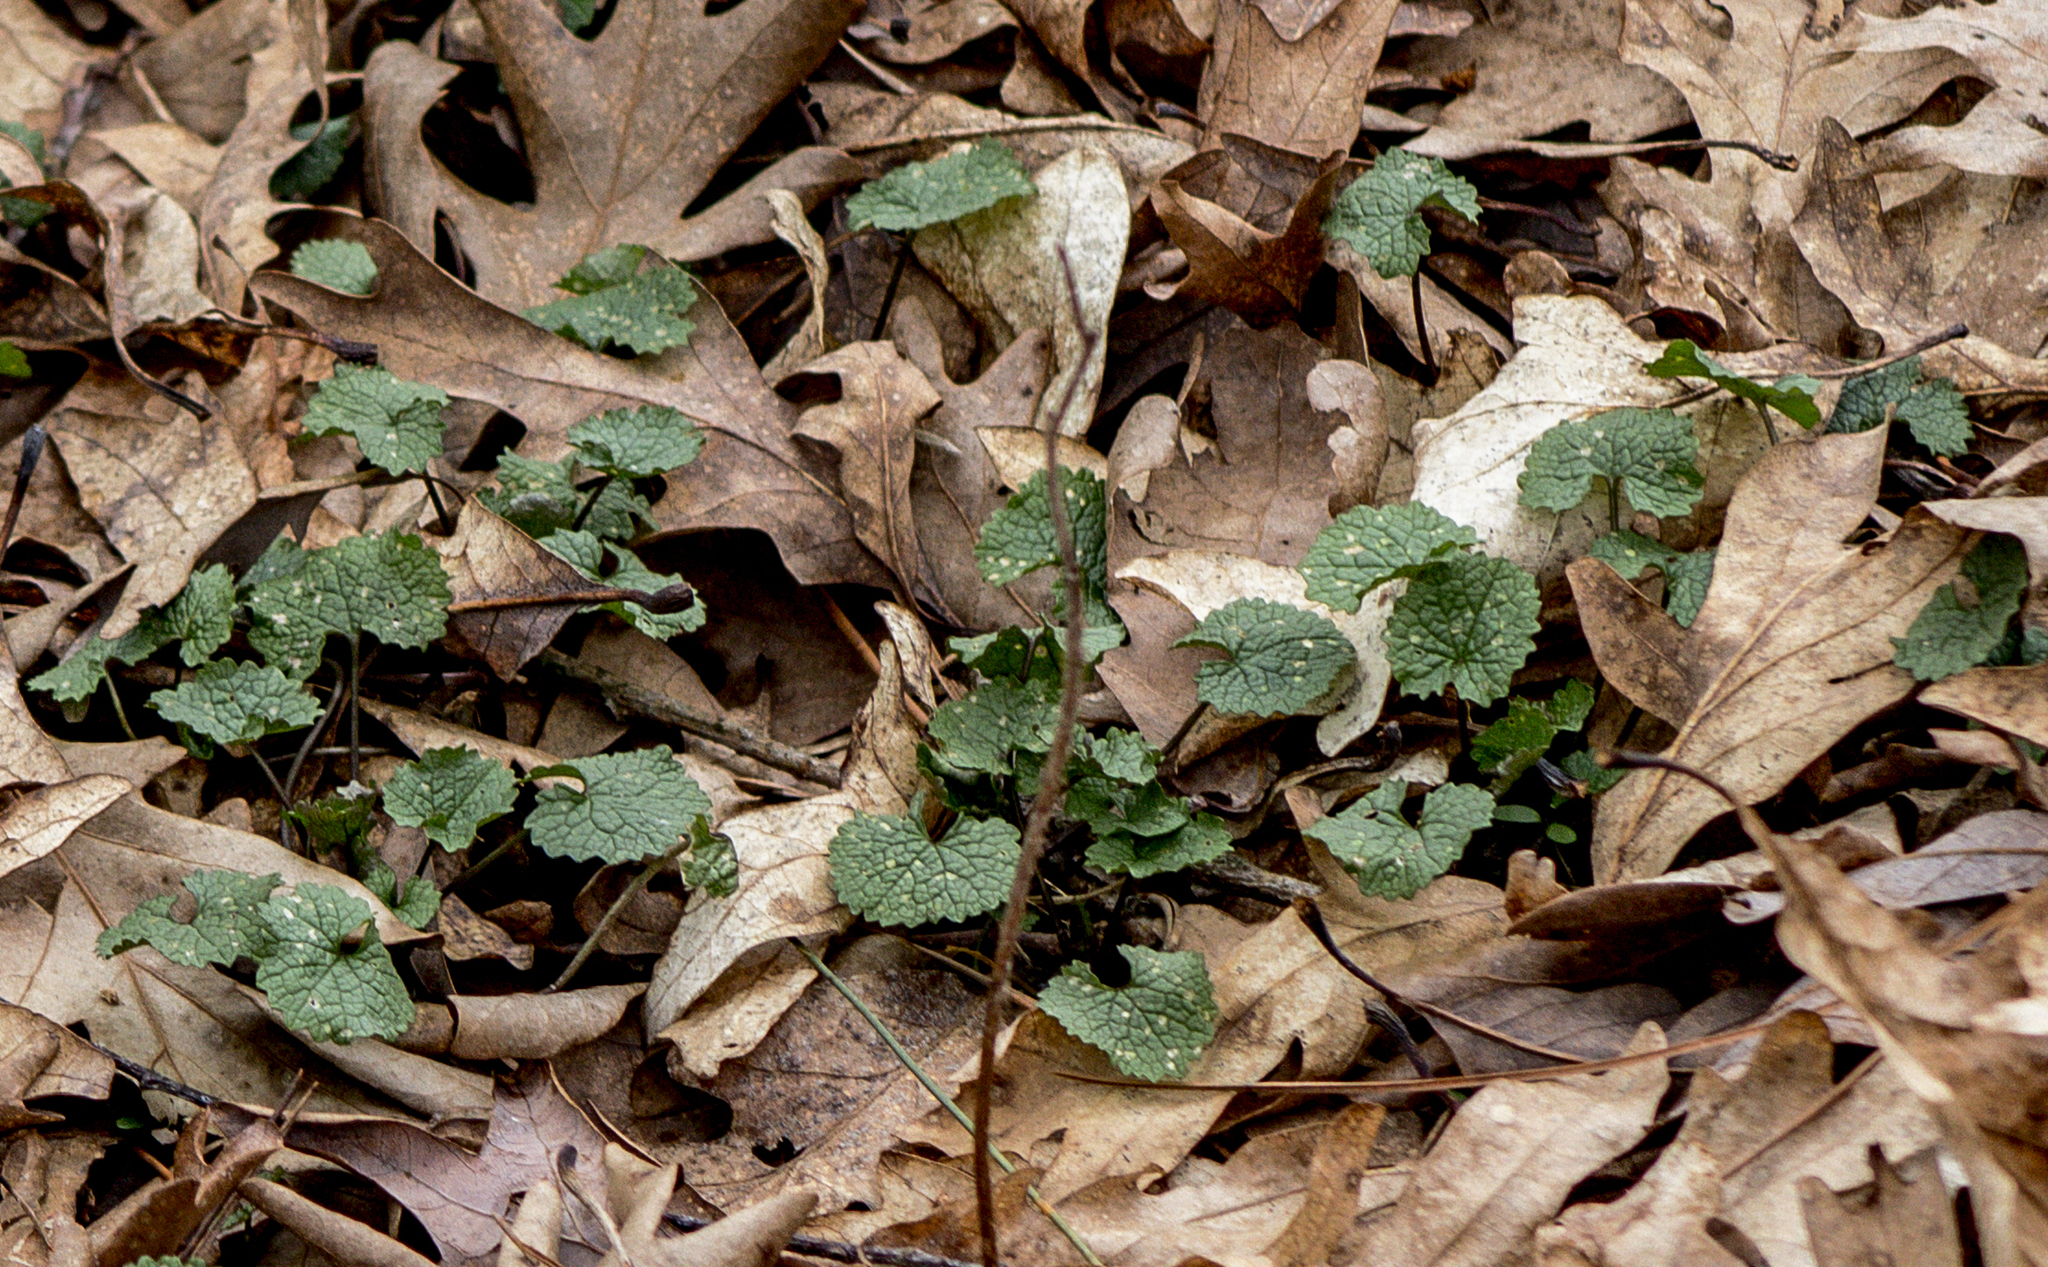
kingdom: Plantae
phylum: Tracheophyta
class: Magnoliopsida
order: Brassicales
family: Brassicaceae
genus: Alliaria
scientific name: Alliaria petiolata
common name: Garlic mustard
